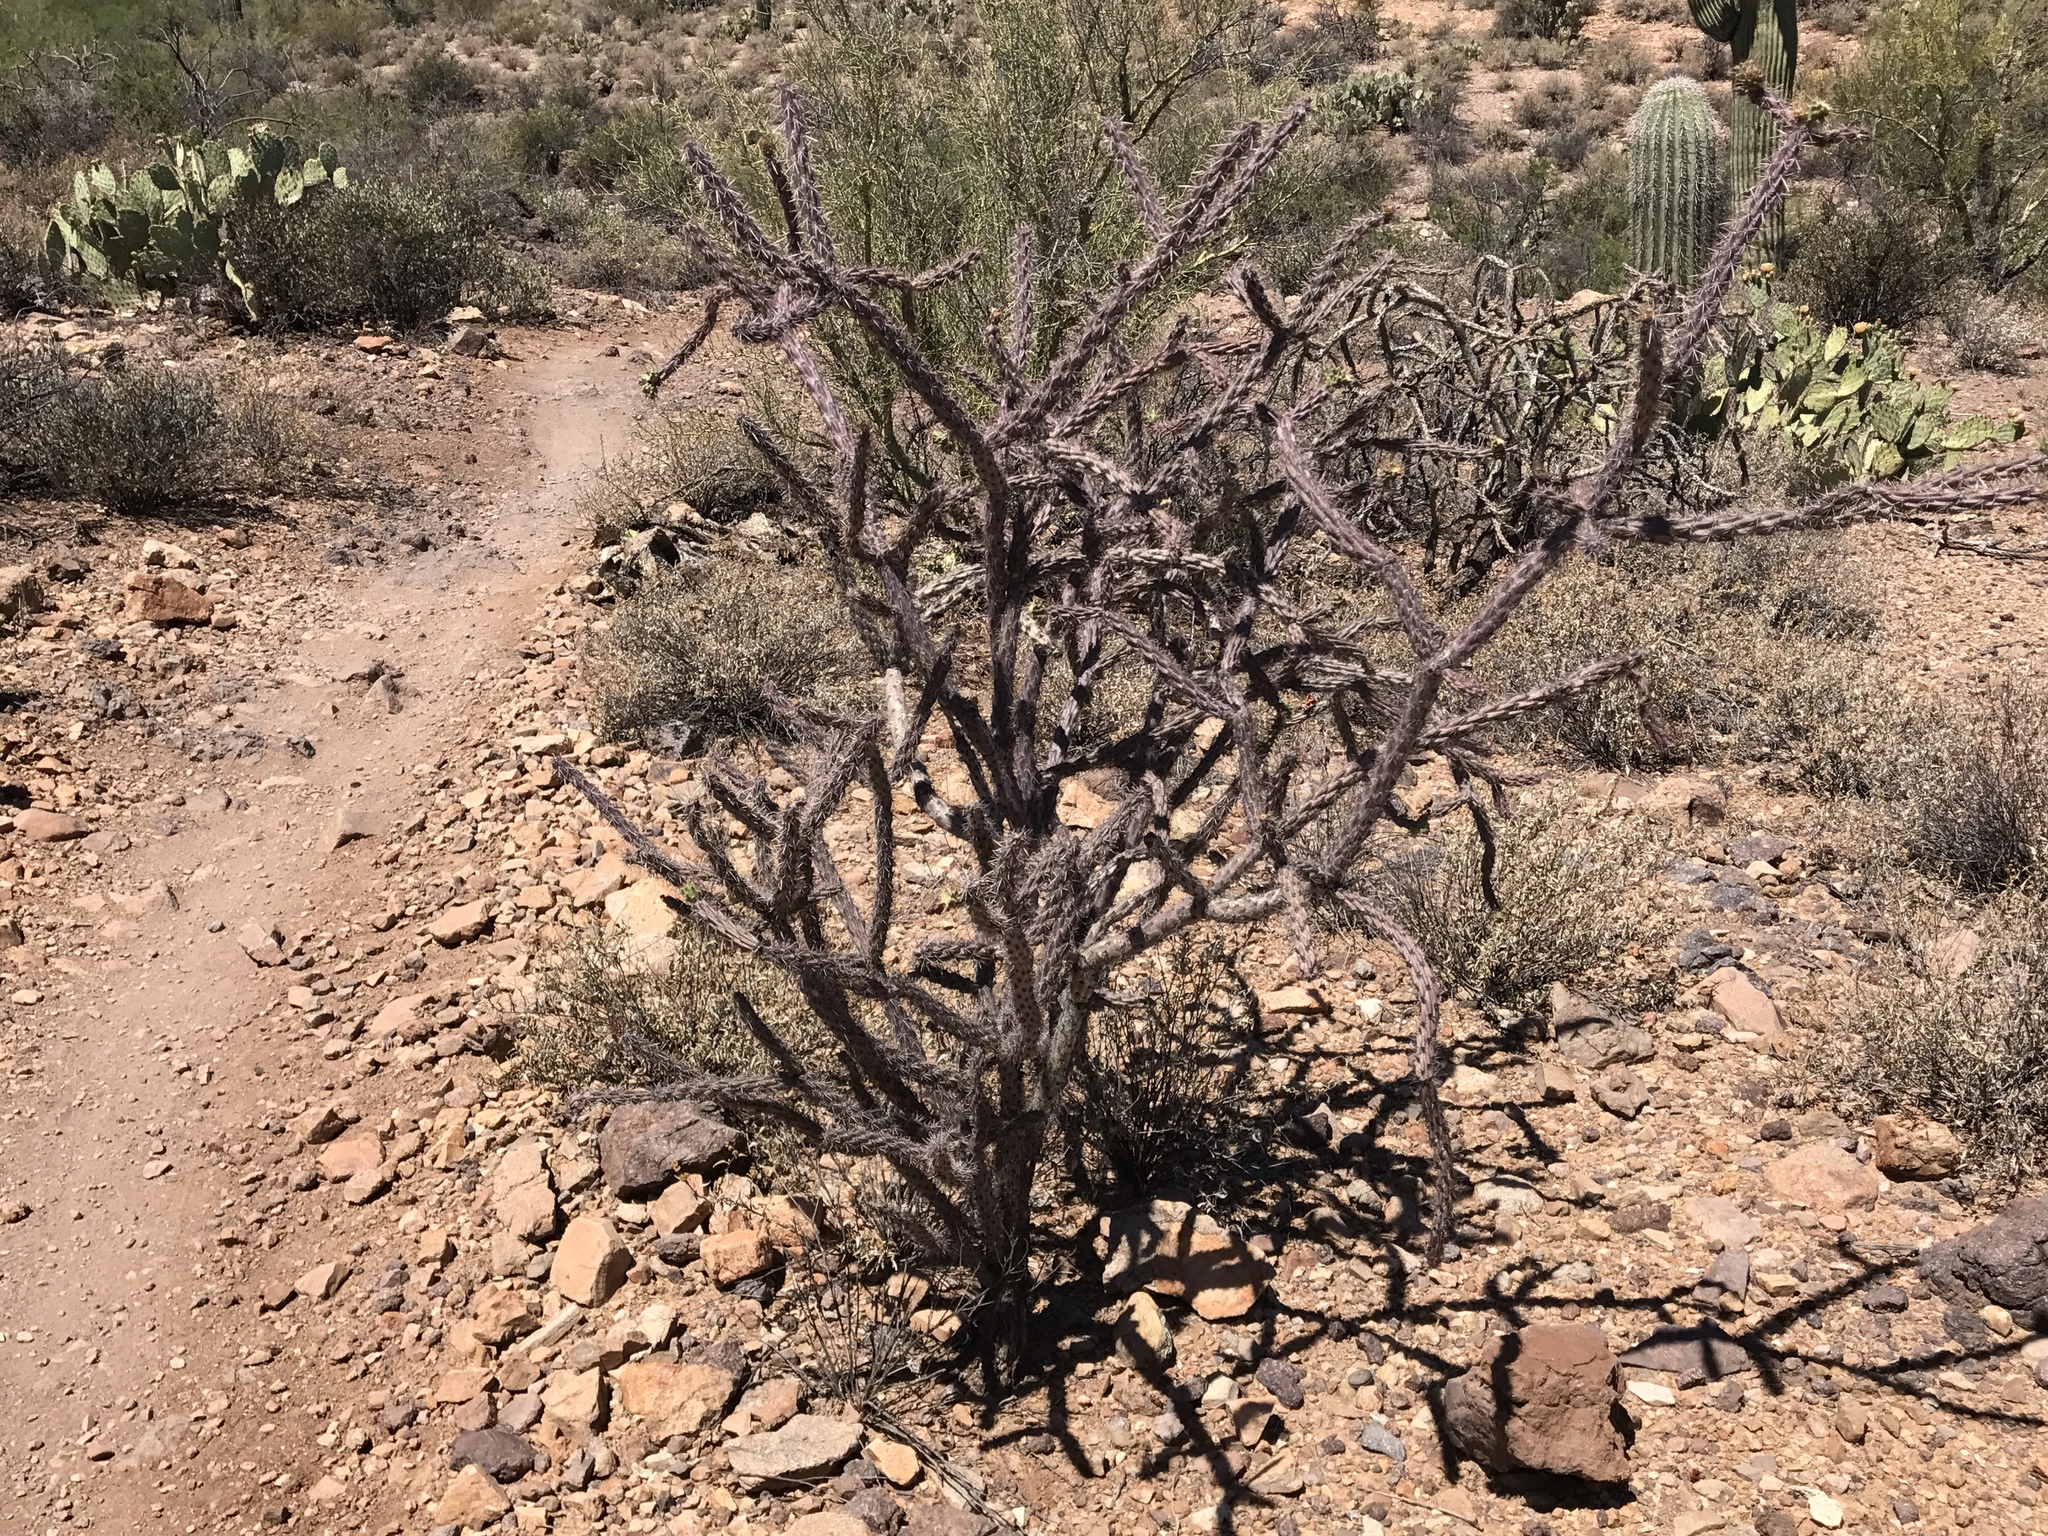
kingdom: Plantae
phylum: Tracheophyta
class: Magnoliopsida
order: Caryophyllales
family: Cactaceae
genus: Cylindropuntia
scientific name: Cylindropuntia imbricata
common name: Candelabrum cactus
